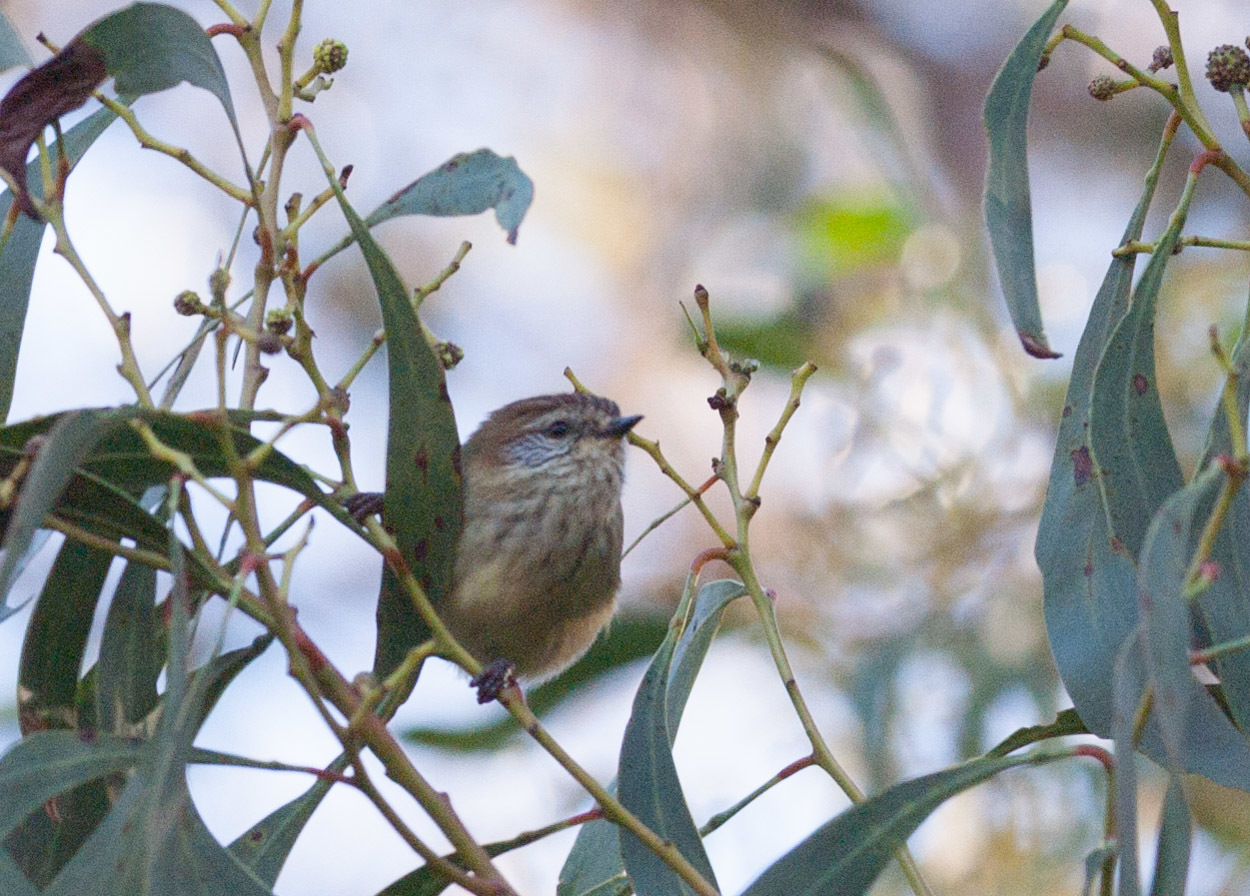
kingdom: Animalia
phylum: Chordata
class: Aves
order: Passeriformes
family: Acanthizidae
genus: Acanthiza
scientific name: Acanthiza lineata
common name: Striated thornbill
